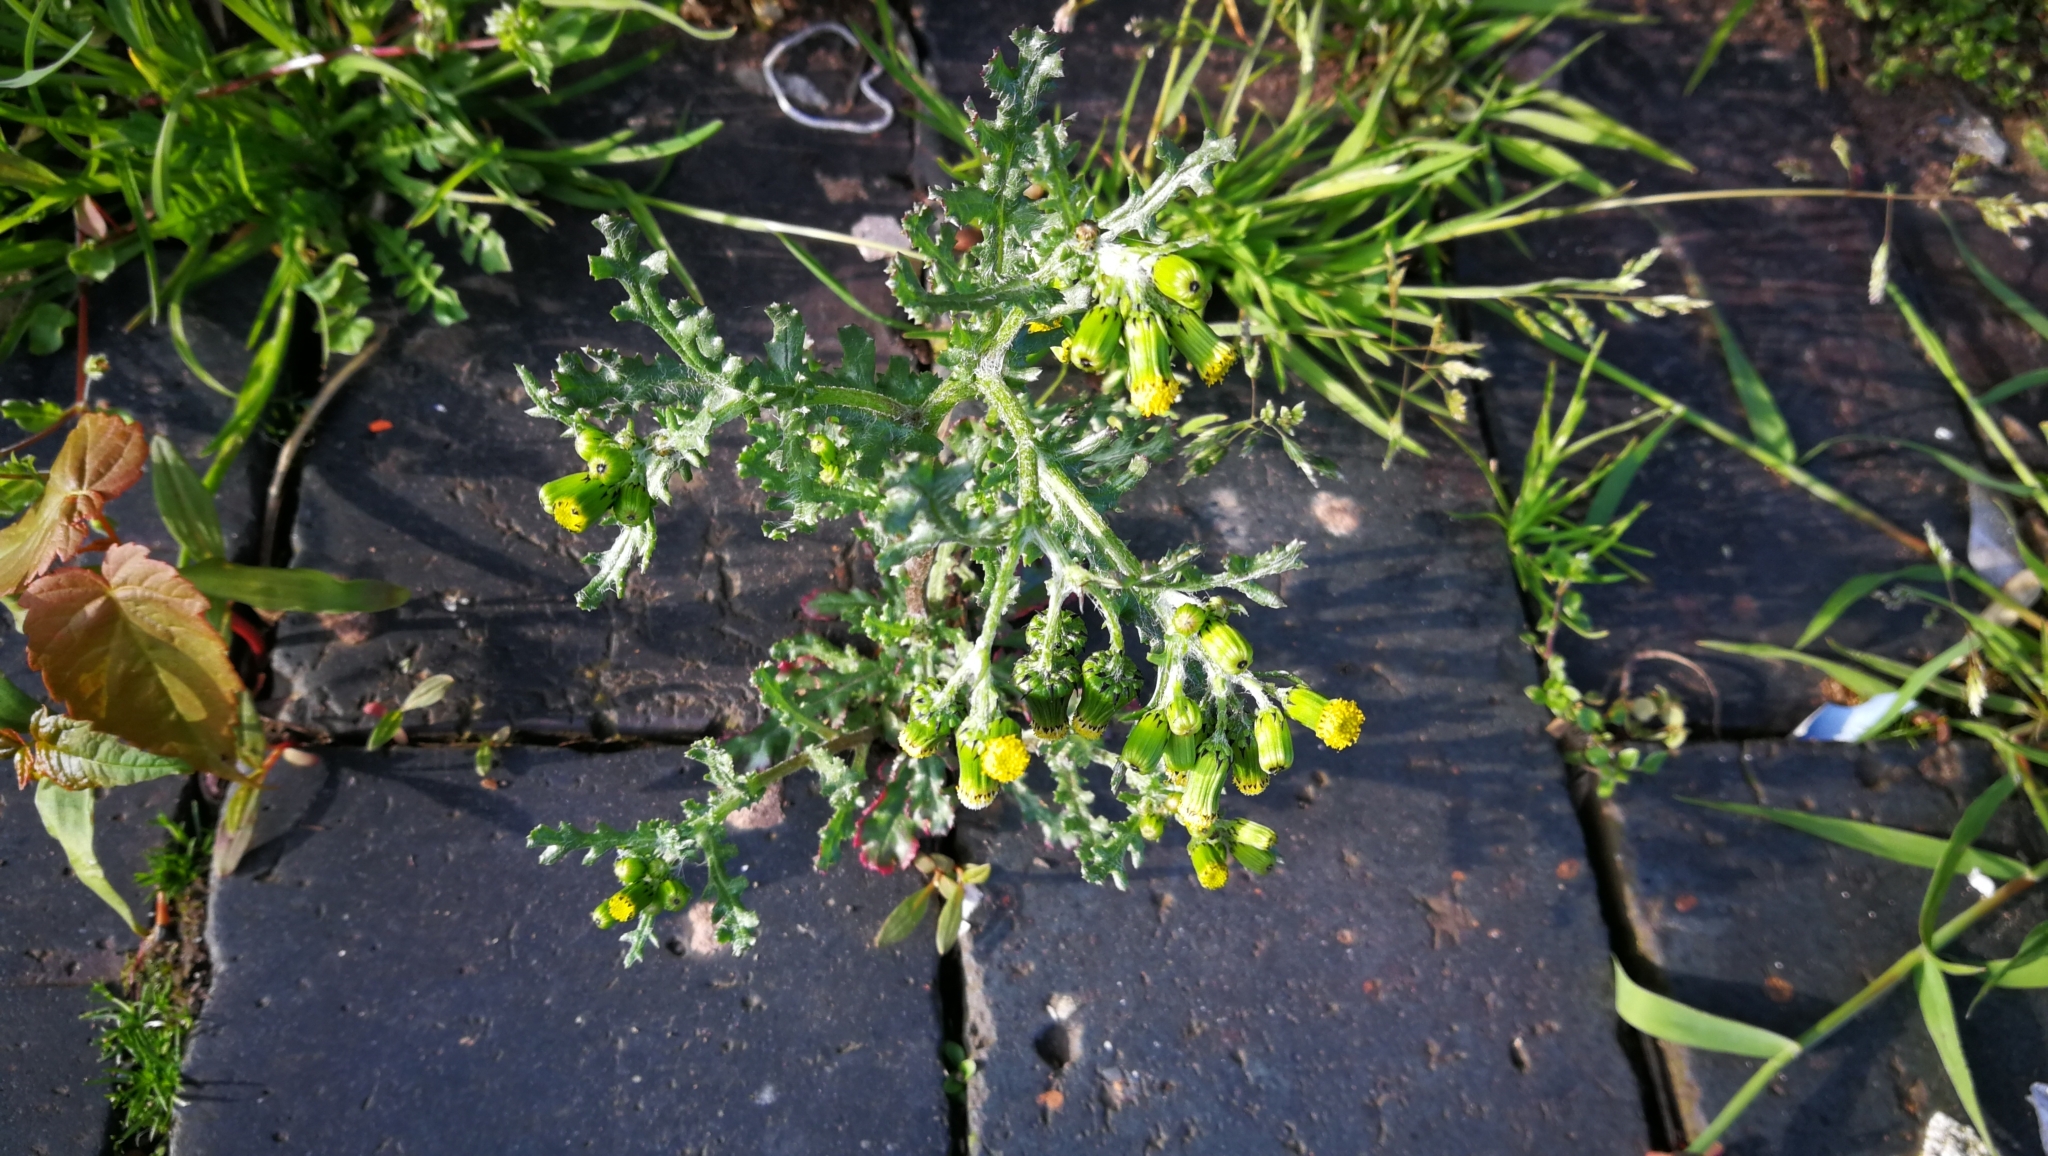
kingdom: Plantae
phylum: Tracheophyta
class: Magnoliopsida
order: Asterales
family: Asteraceae
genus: Senecio
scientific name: Senecio vulgaris
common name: Old-man-in-the-spring
